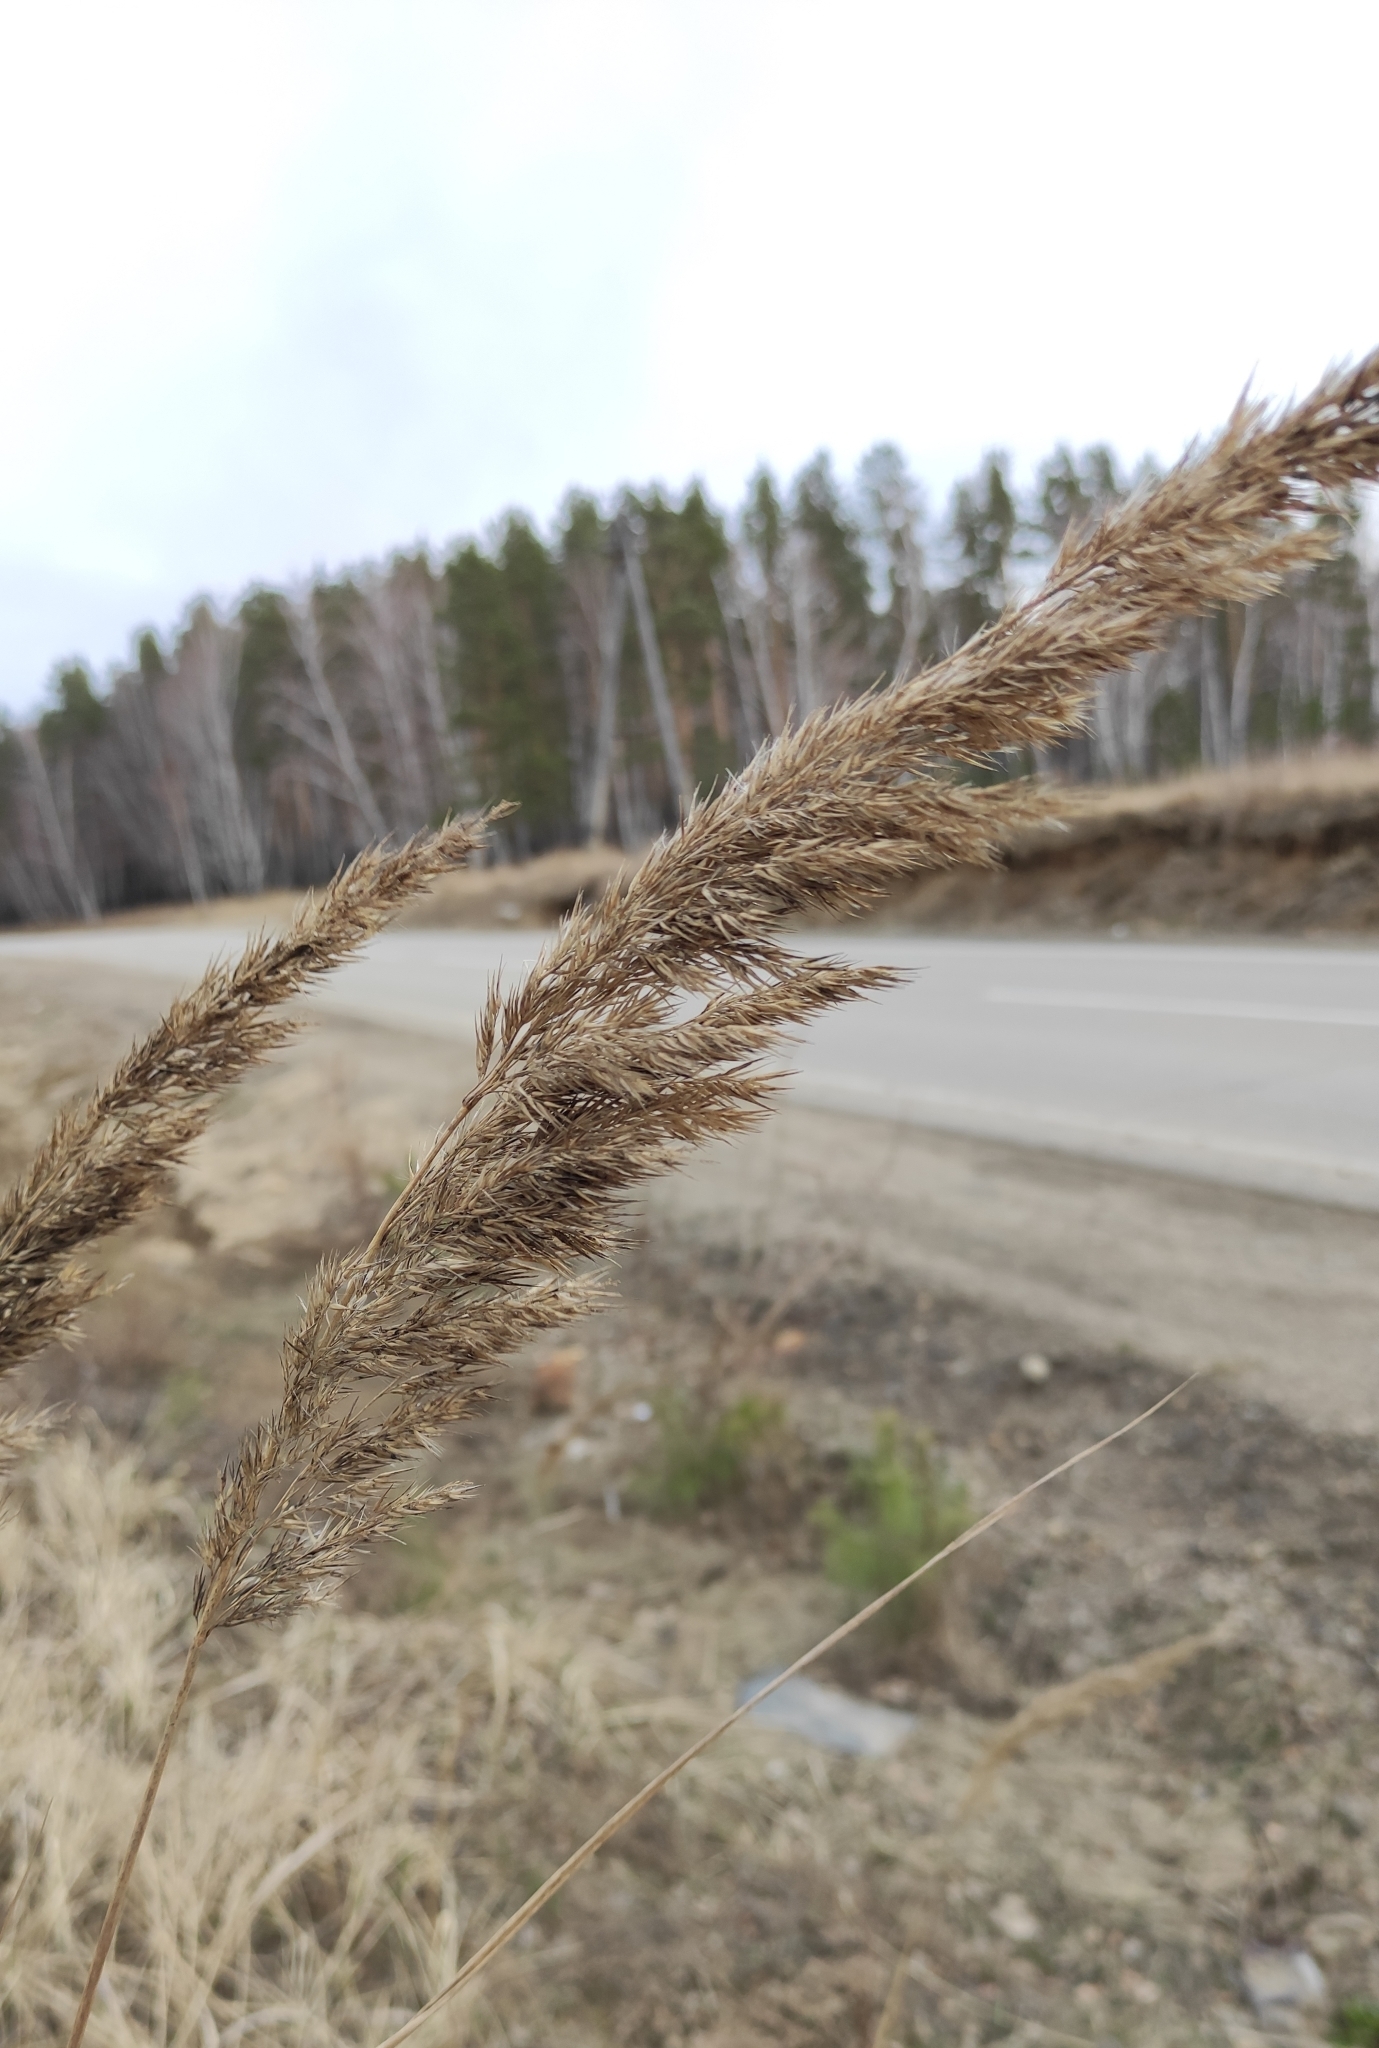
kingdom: Plantae
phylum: Tracheophyta
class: Liliopsida
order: Poales
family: Poaceae
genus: Calamagrostis
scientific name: Calamagrostis epigejos
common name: Wood small-reed
